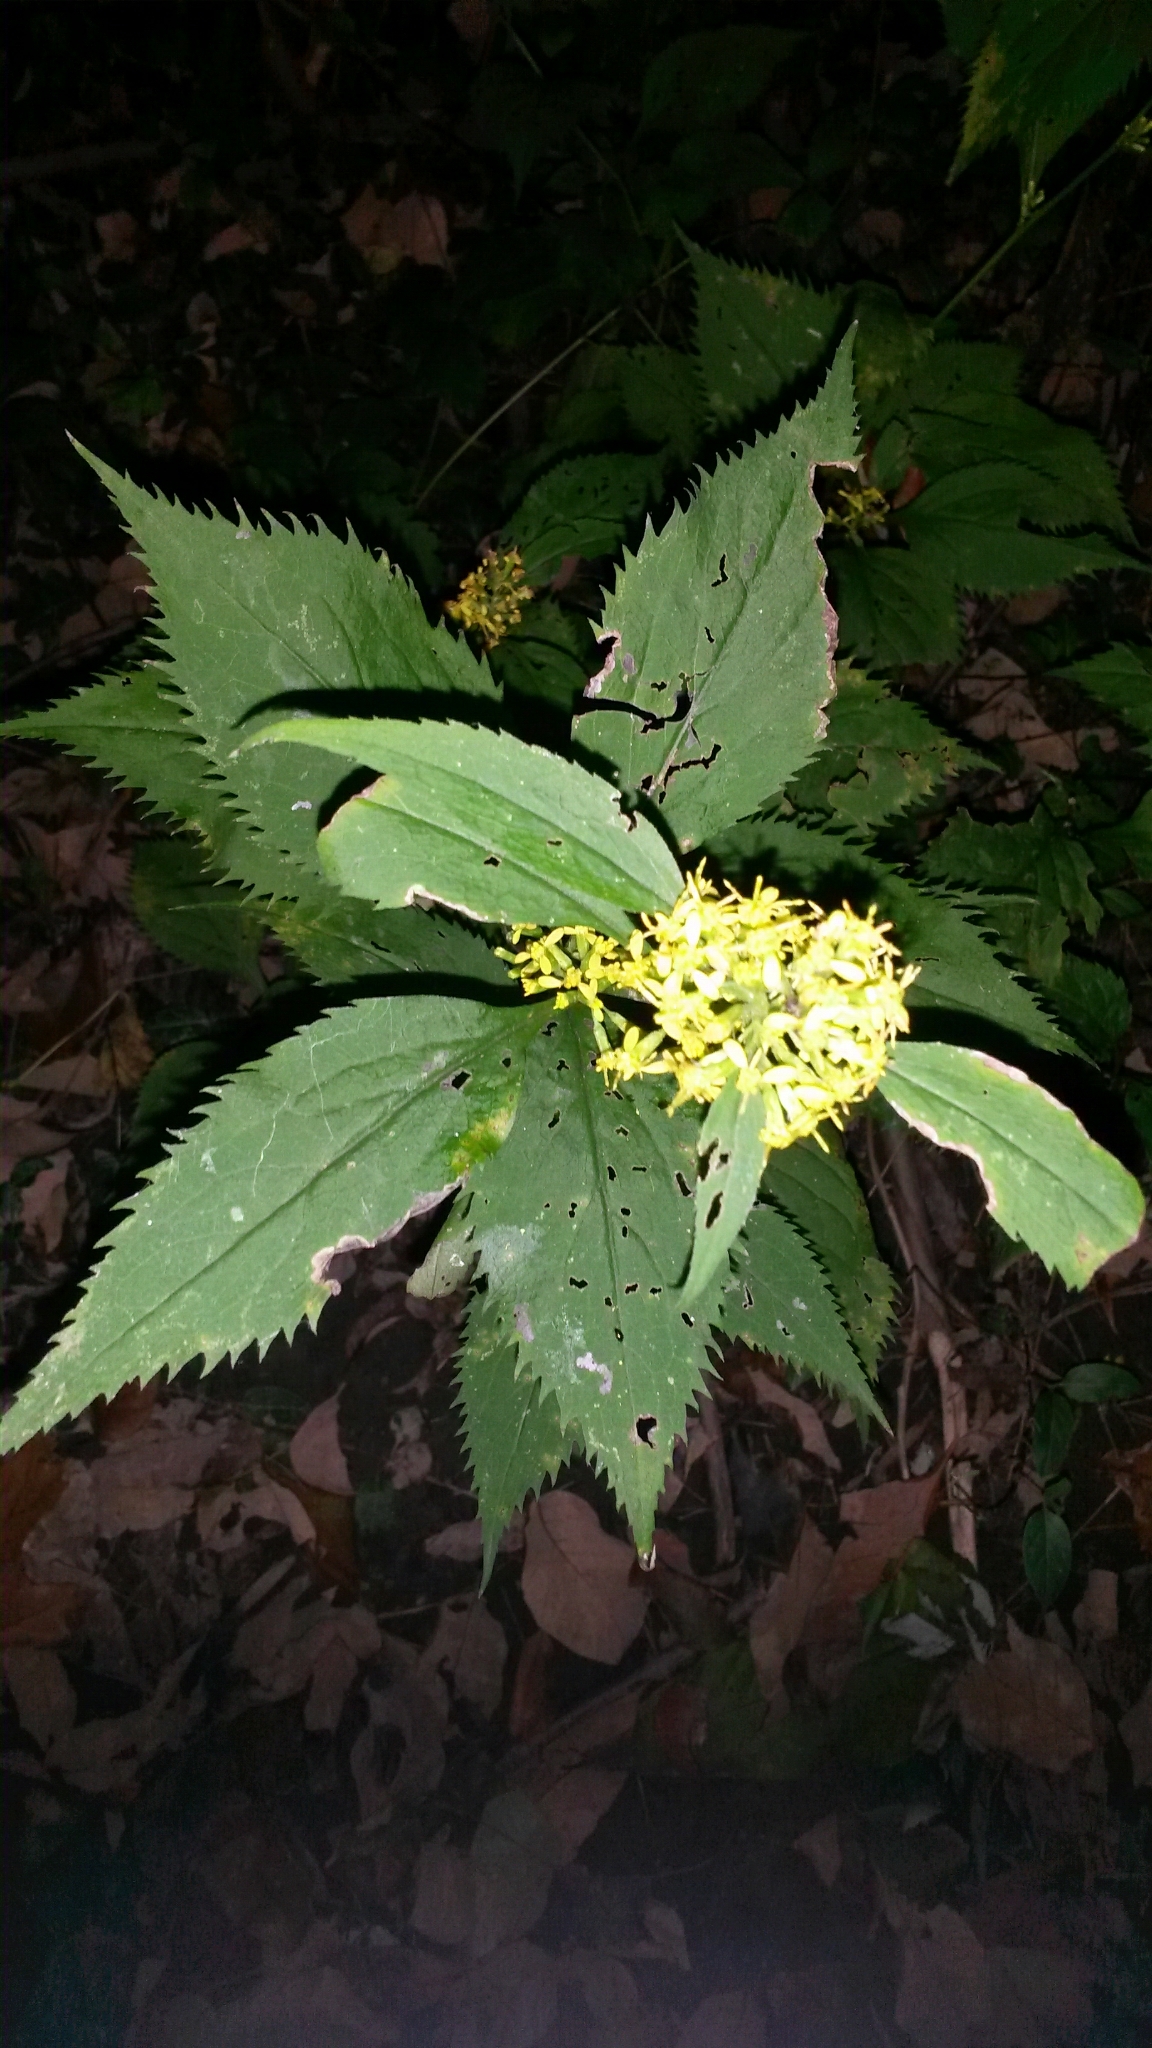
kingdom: Plantae
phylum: Tracheophyta
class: Magnoliopsida
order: Asterales
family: Asteraceae
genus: Solidago
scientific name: Solidago flexicaulis
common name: Zig-zag goldenrod
